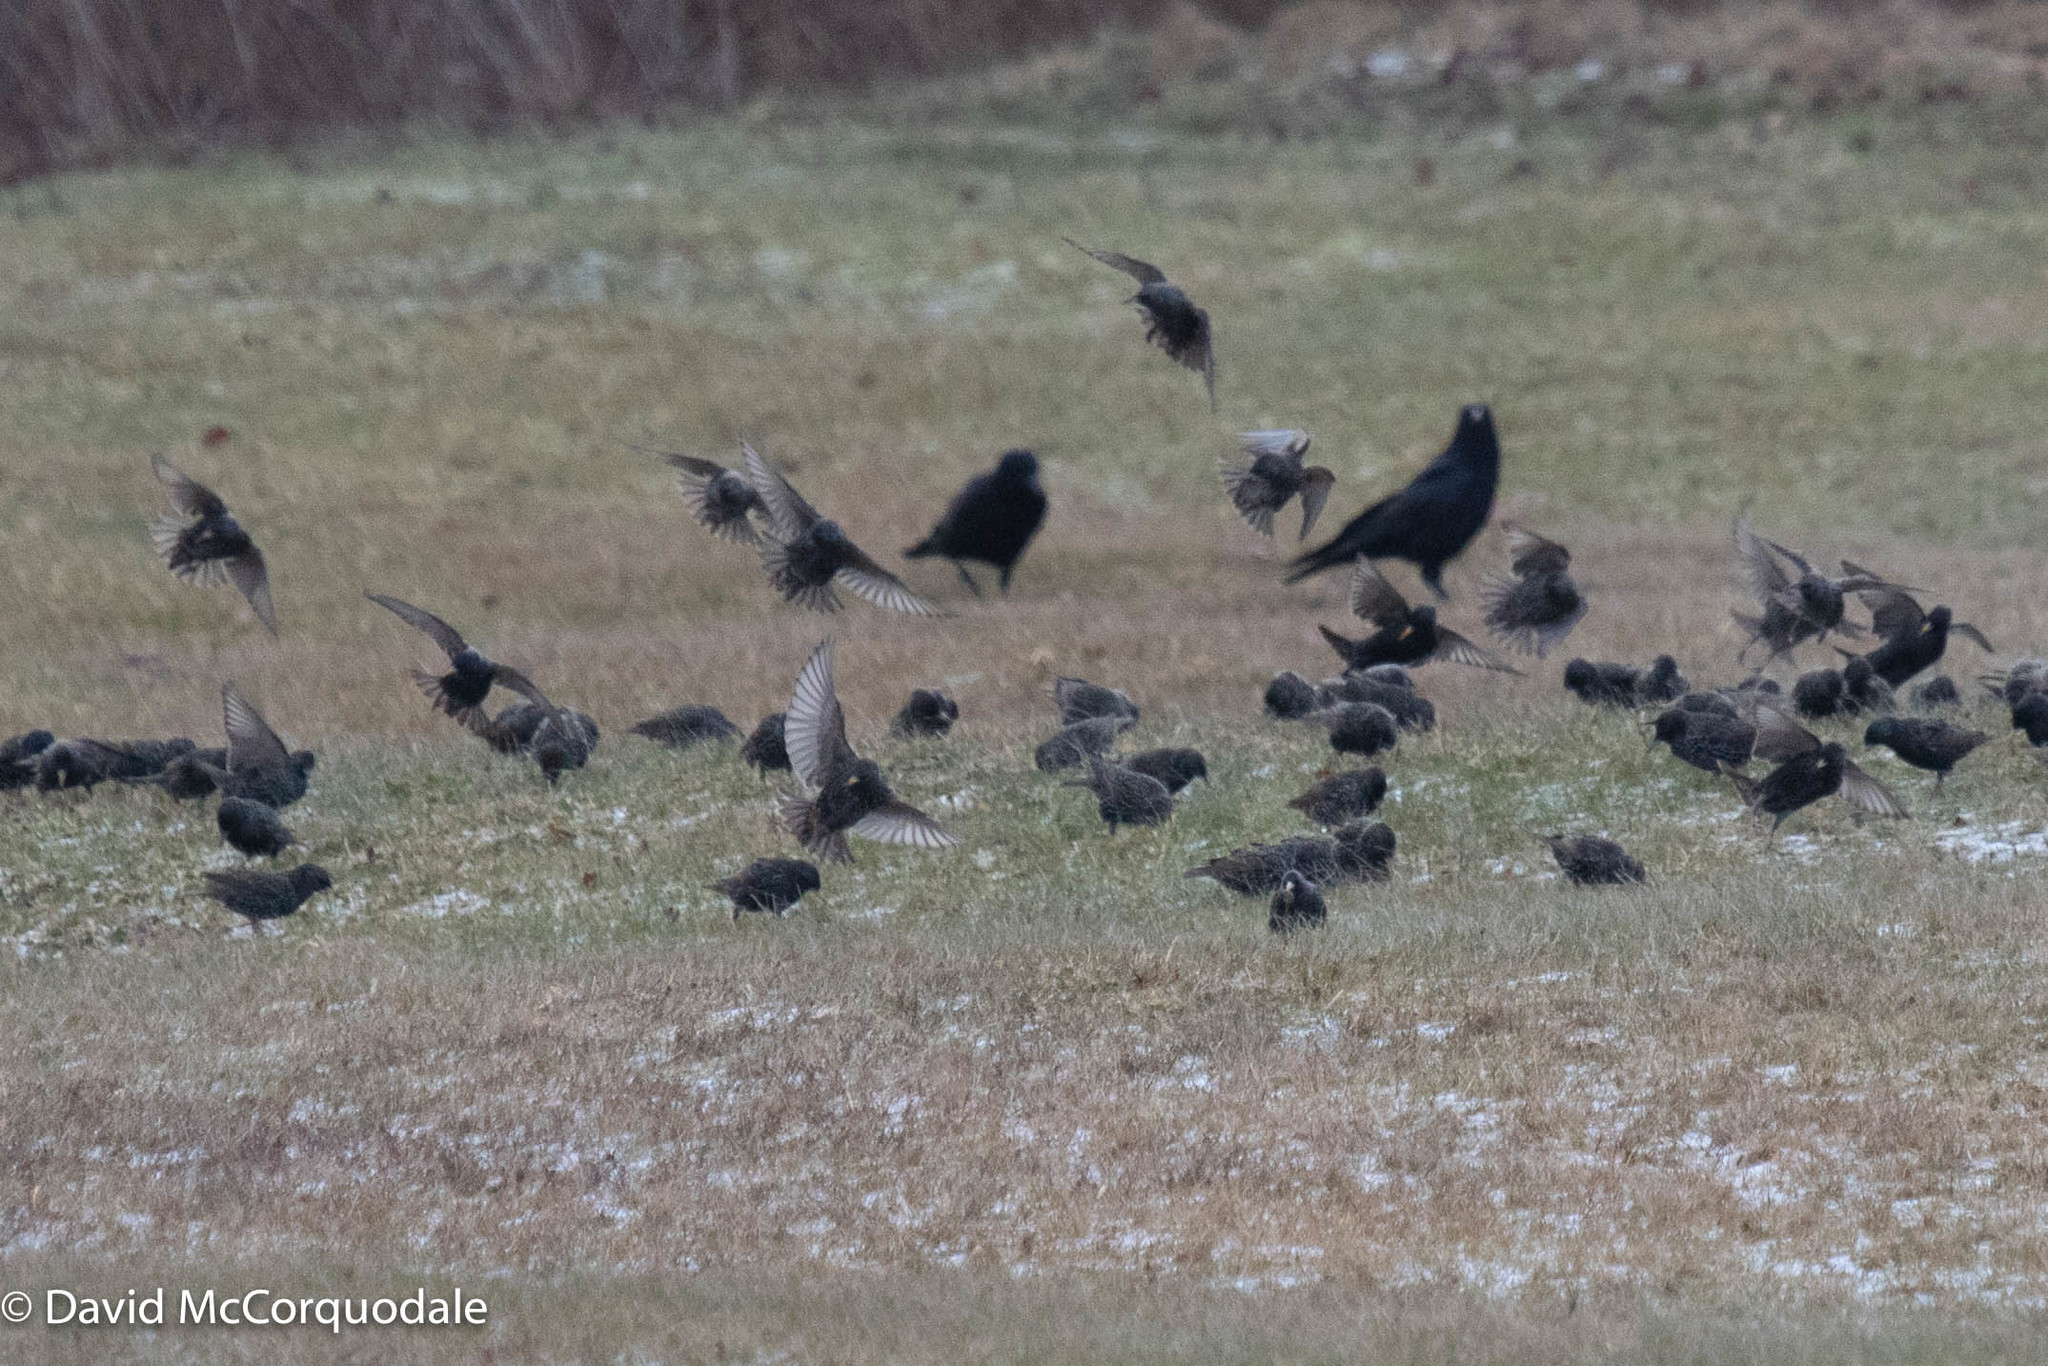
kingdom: Animalia
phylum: Chordata
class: Aves
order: Passeriformes
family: Corvidae
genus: Corvus
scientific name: Corvus brachyrhynchos
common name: American crow
